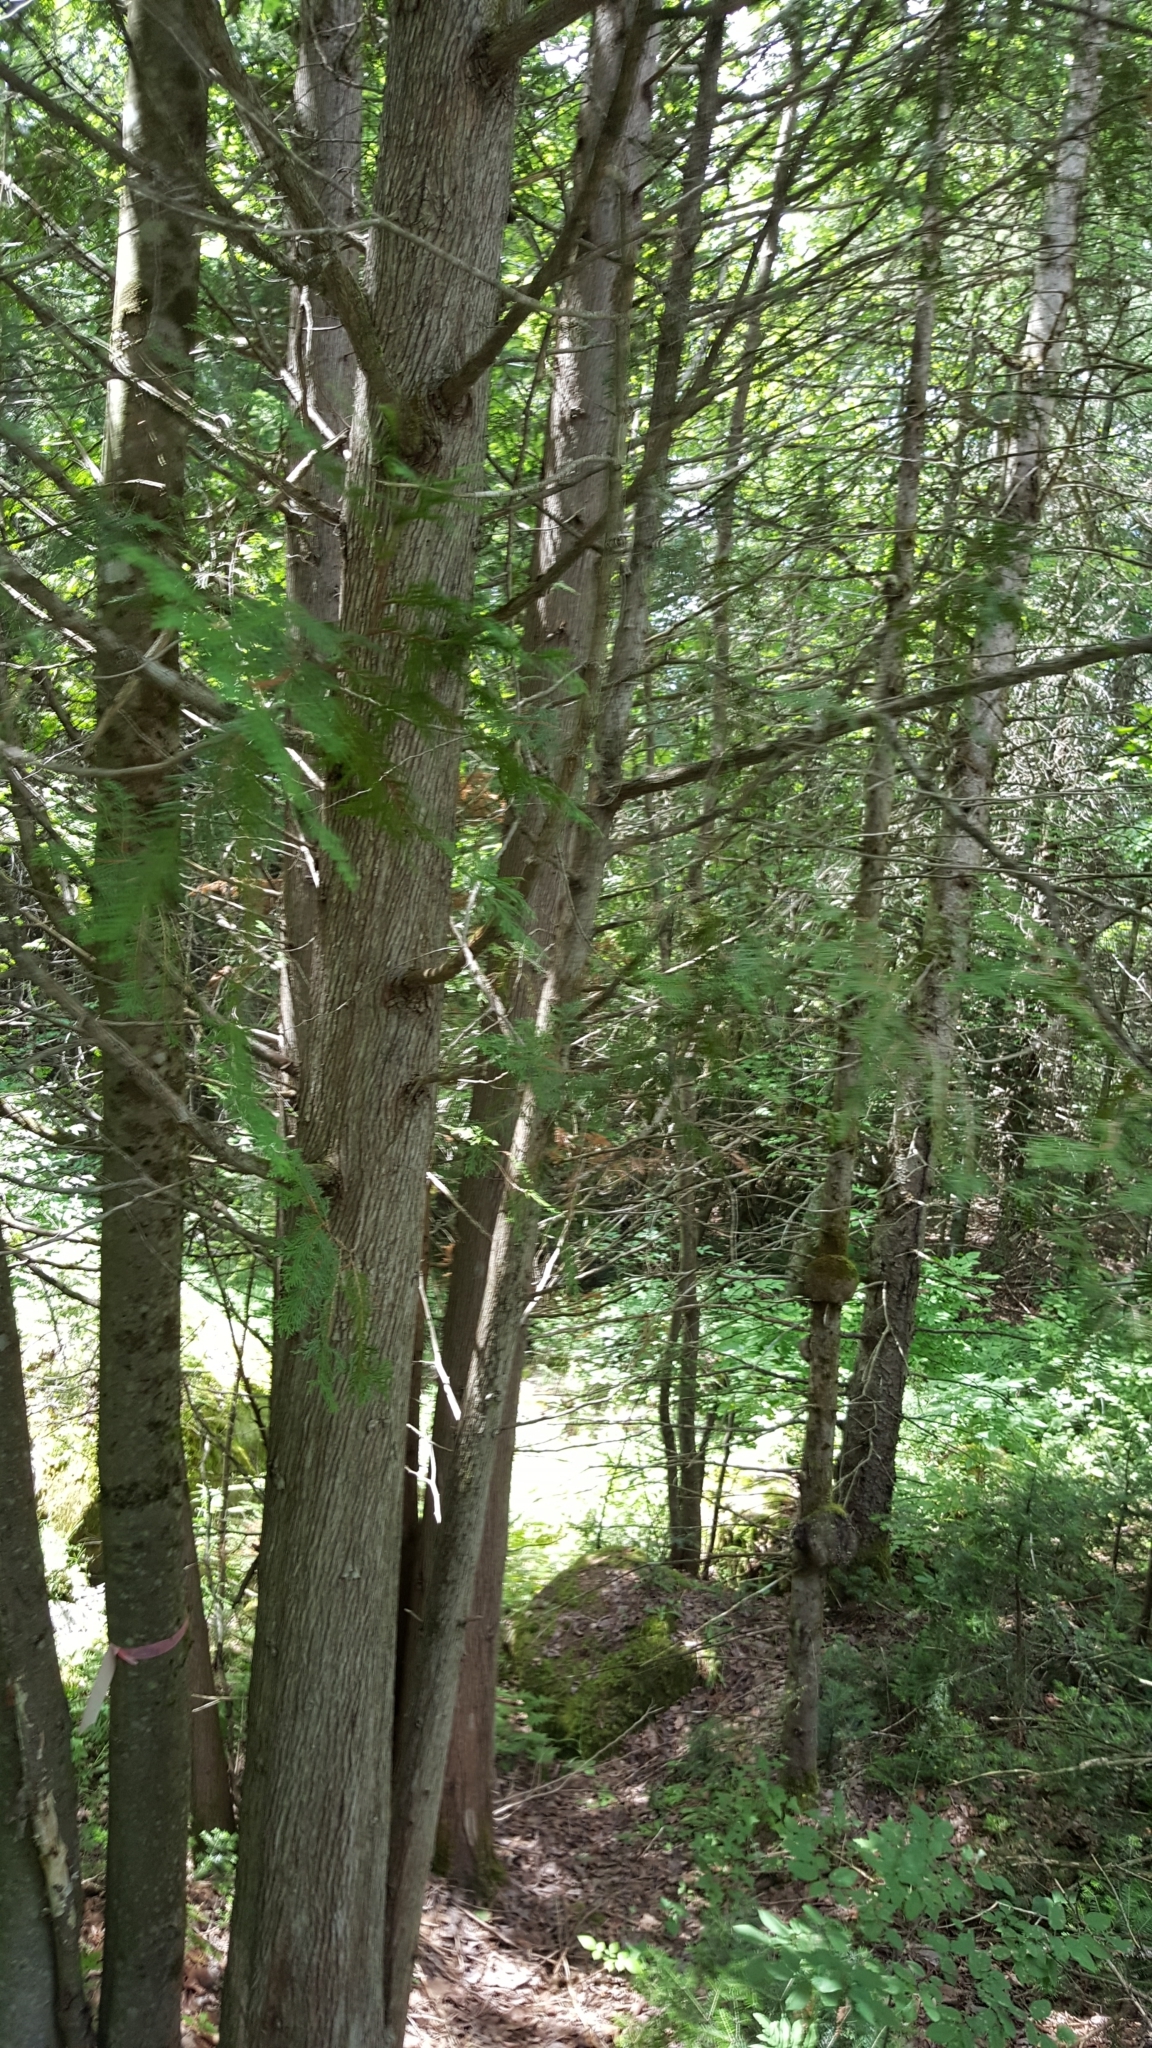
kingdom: Plantae
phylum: Tracheophyta
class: Pinopsida
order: Pinales
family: Cupressaceae
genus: Thuja
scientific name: Thuja occidentalis
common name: Northern white-cedar
